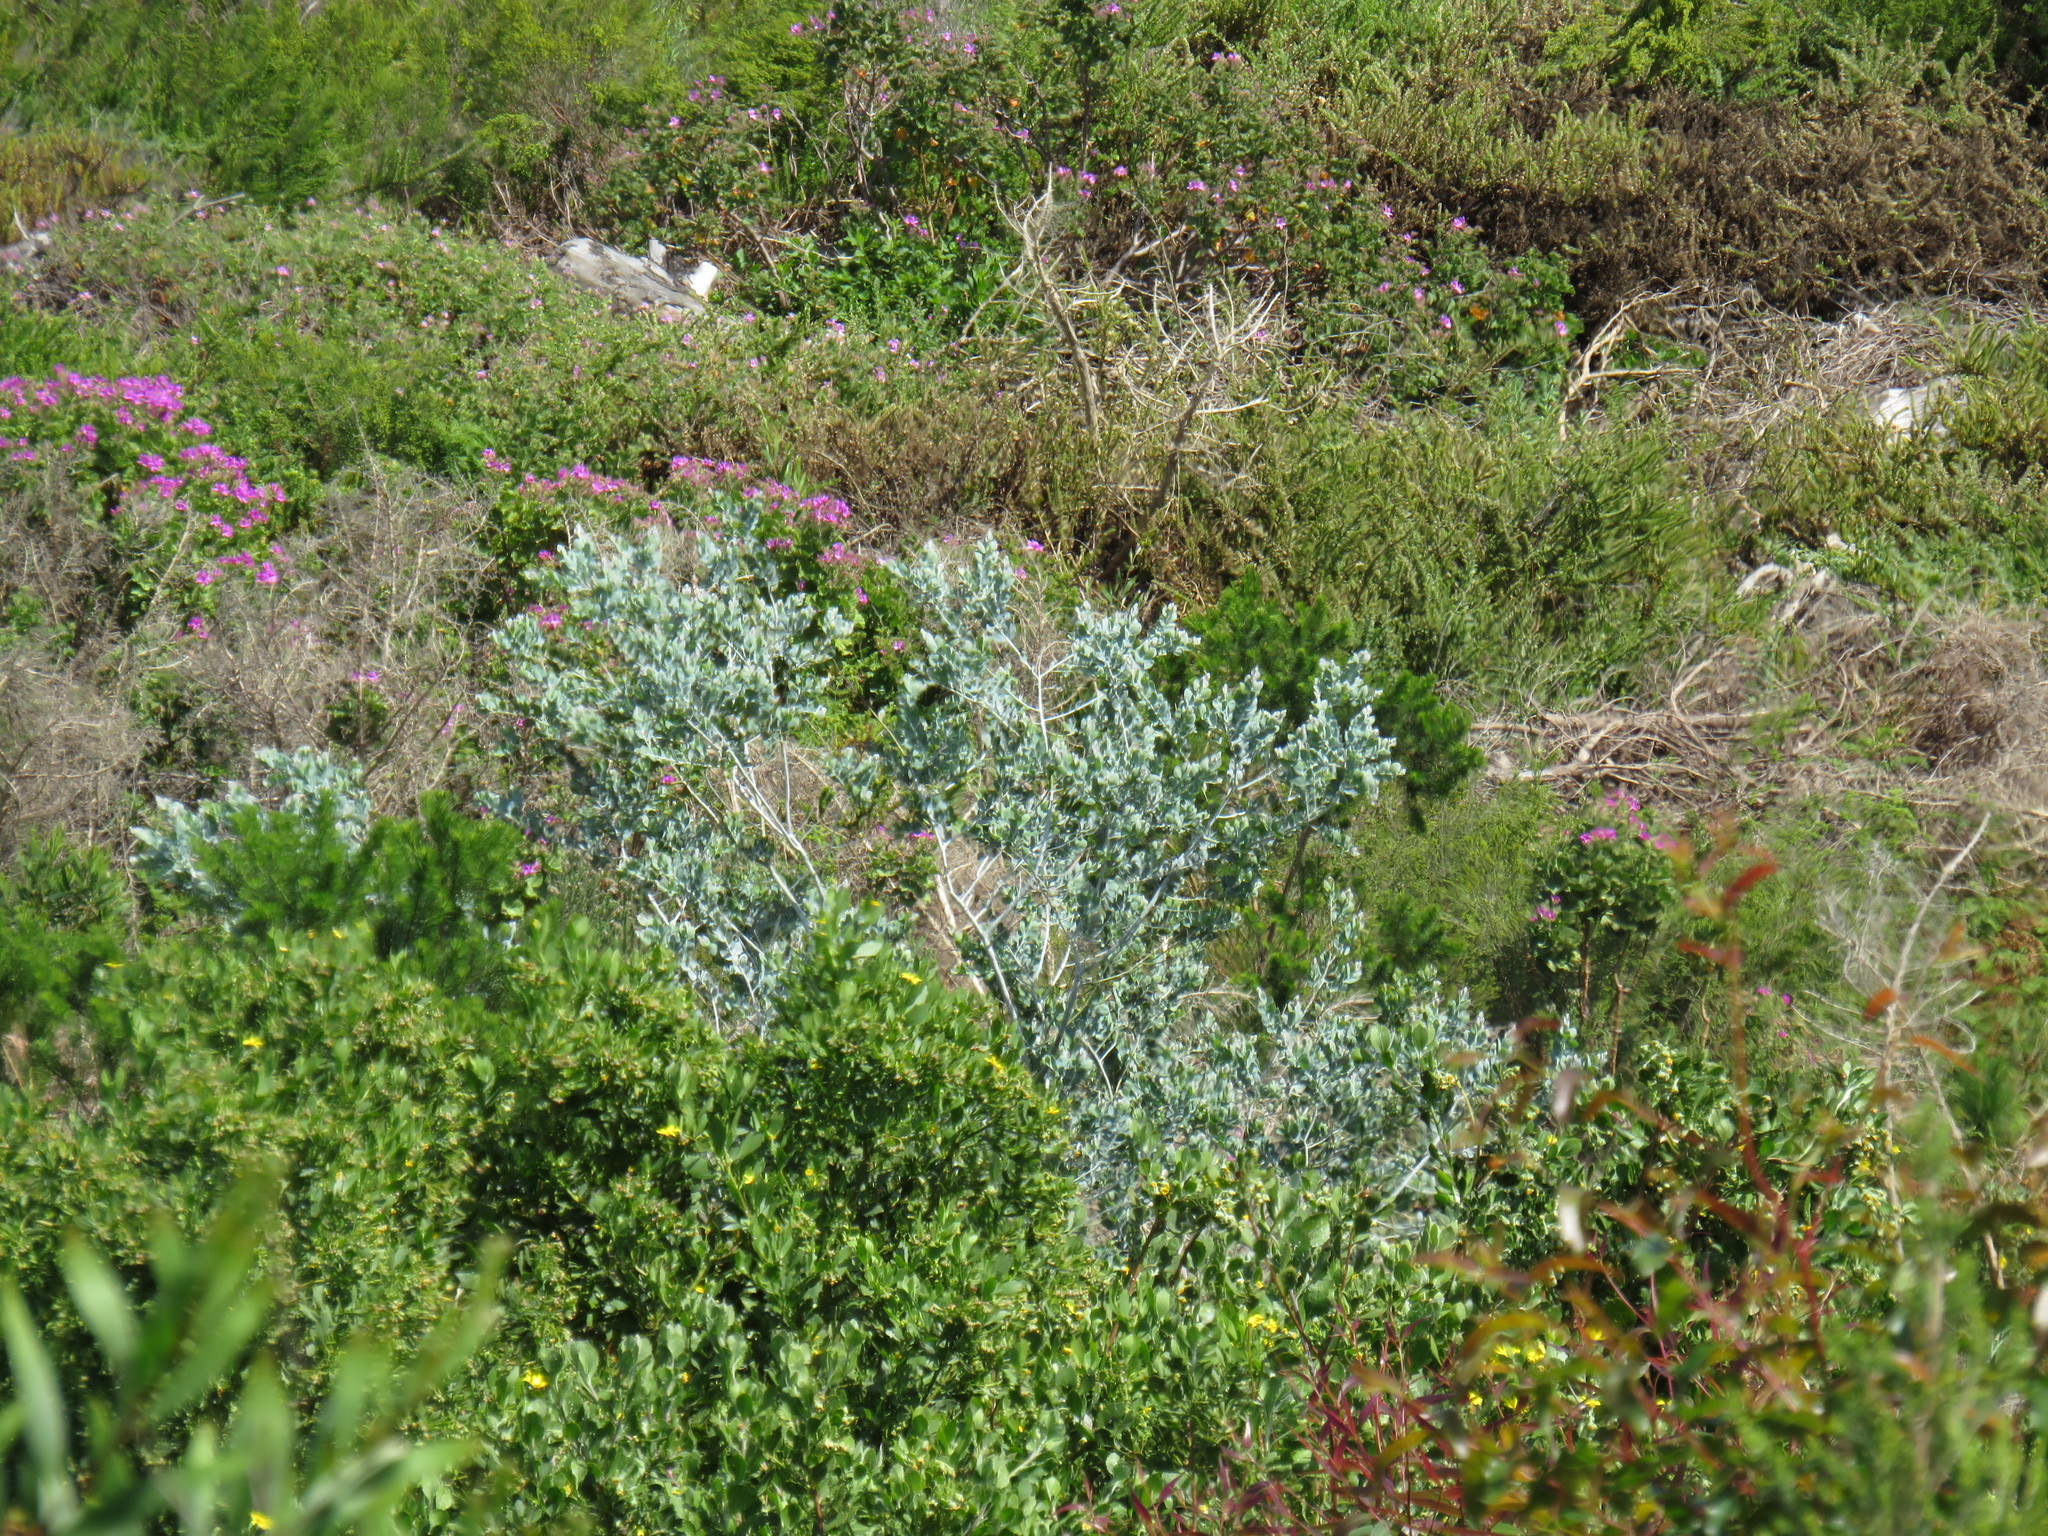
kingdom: Plantae
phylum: Tracheophyta
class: Magnoliopsida
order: Asterales
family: Asteraceae
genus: Osteospermum
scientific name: Osteospermum moniliferum
